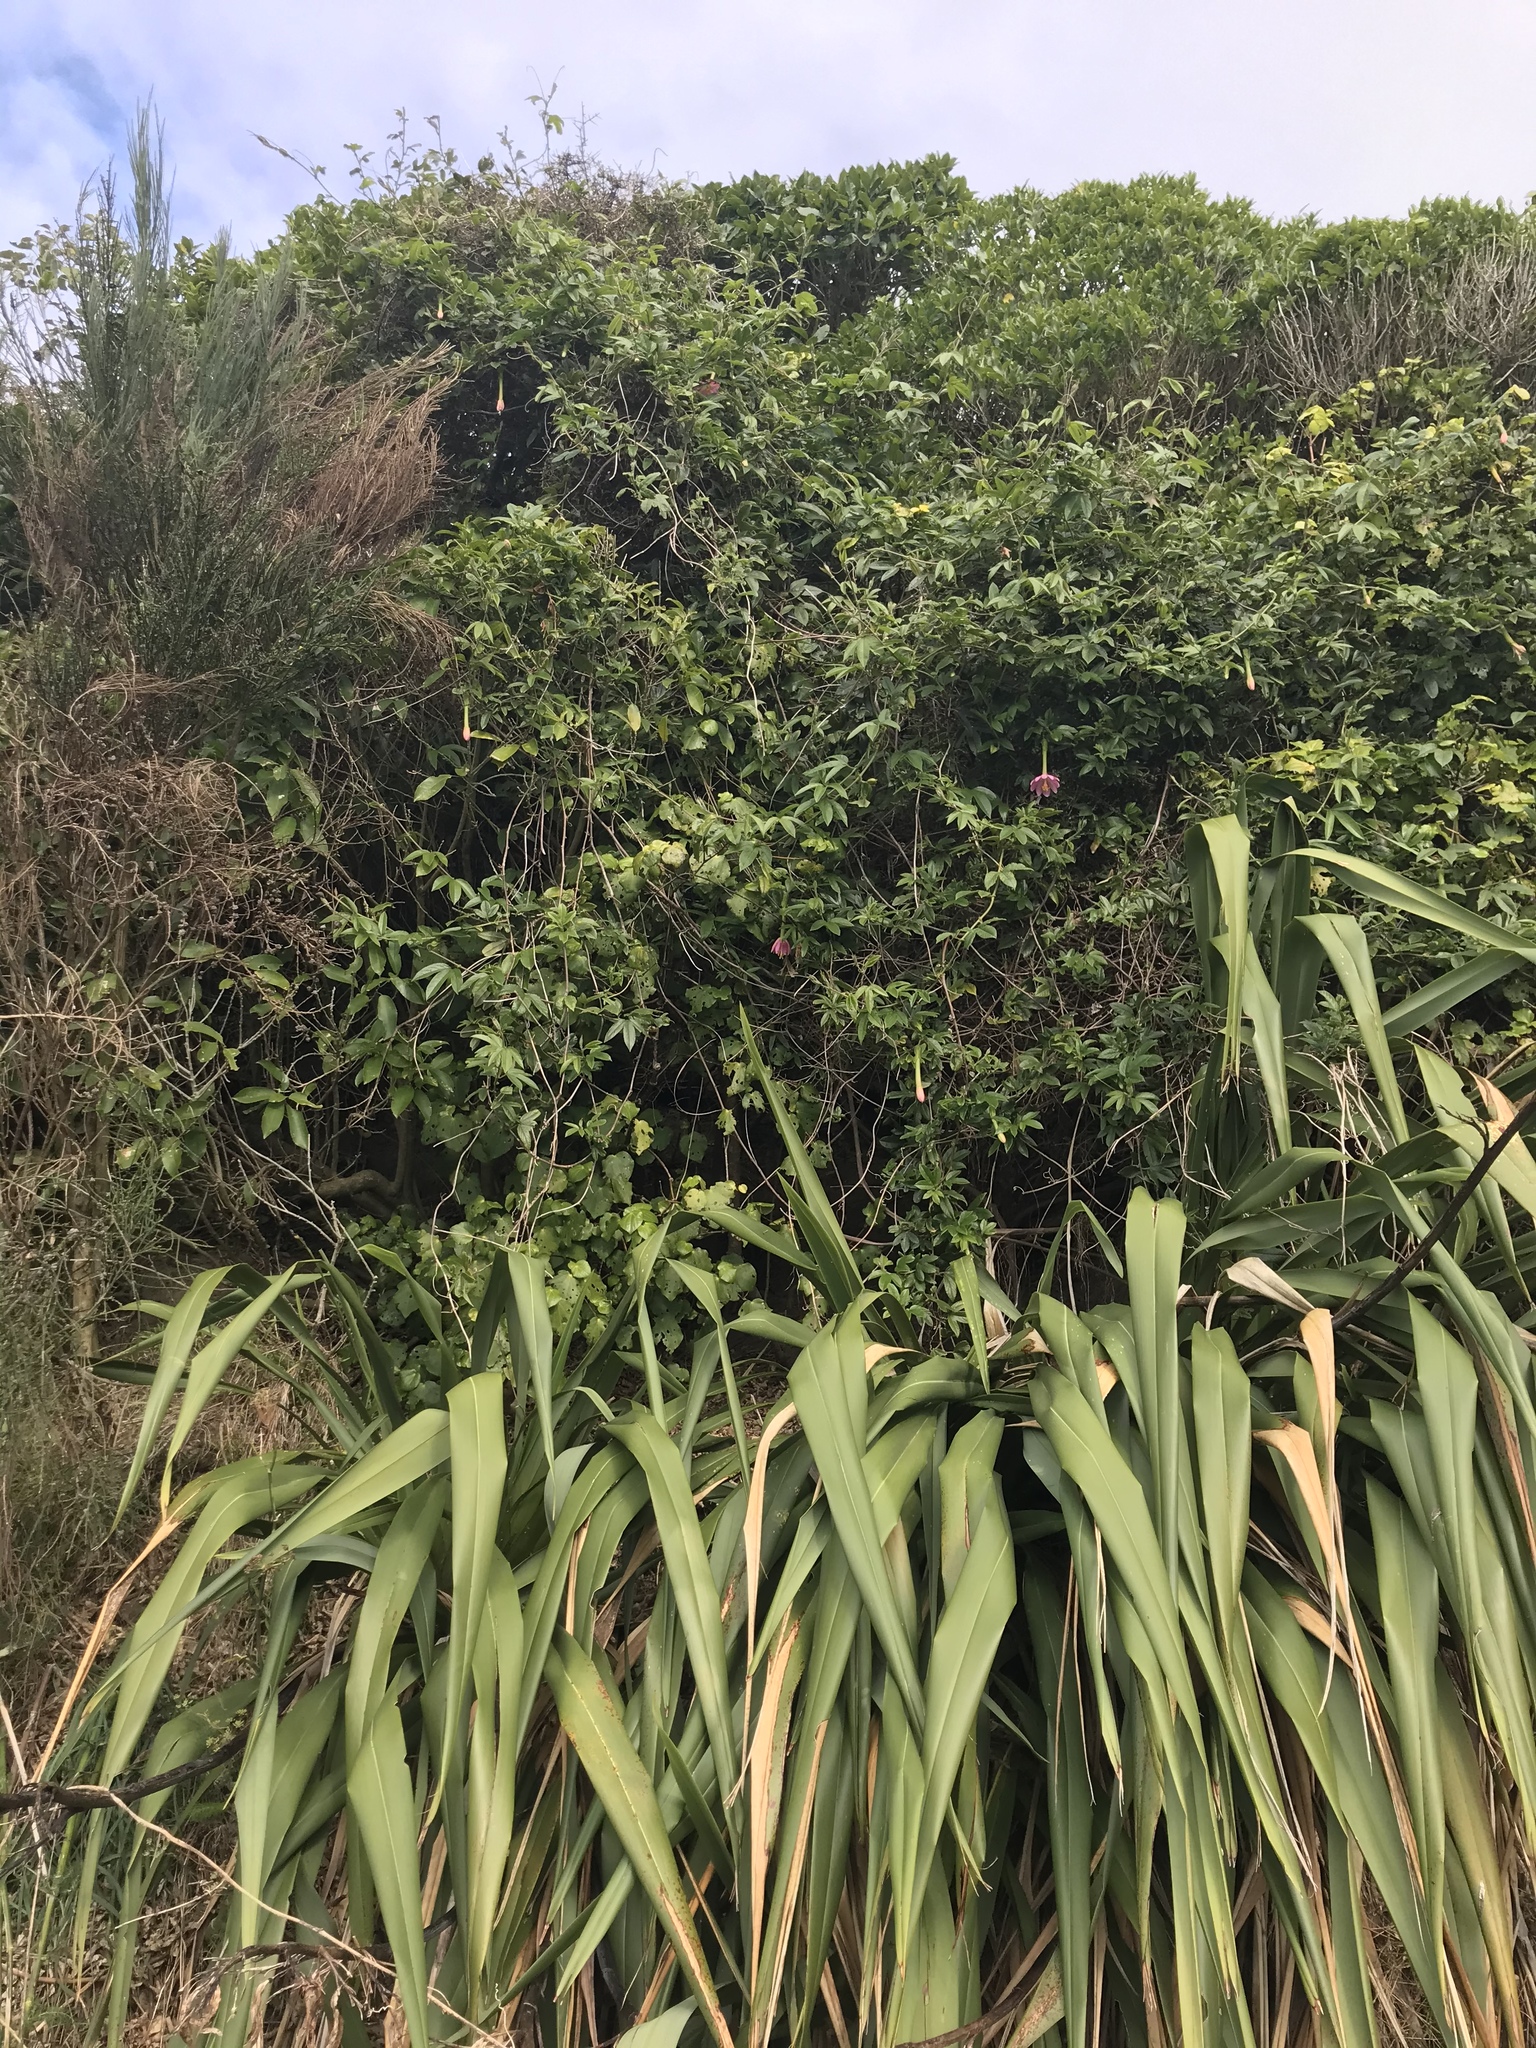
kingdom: Plantae
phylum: Tracheophyta
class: Magnoliopsida
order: Malpighiales
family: Passifloraceae
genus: Passiflora
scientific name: Passiflora tripartita
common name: Banana poka
